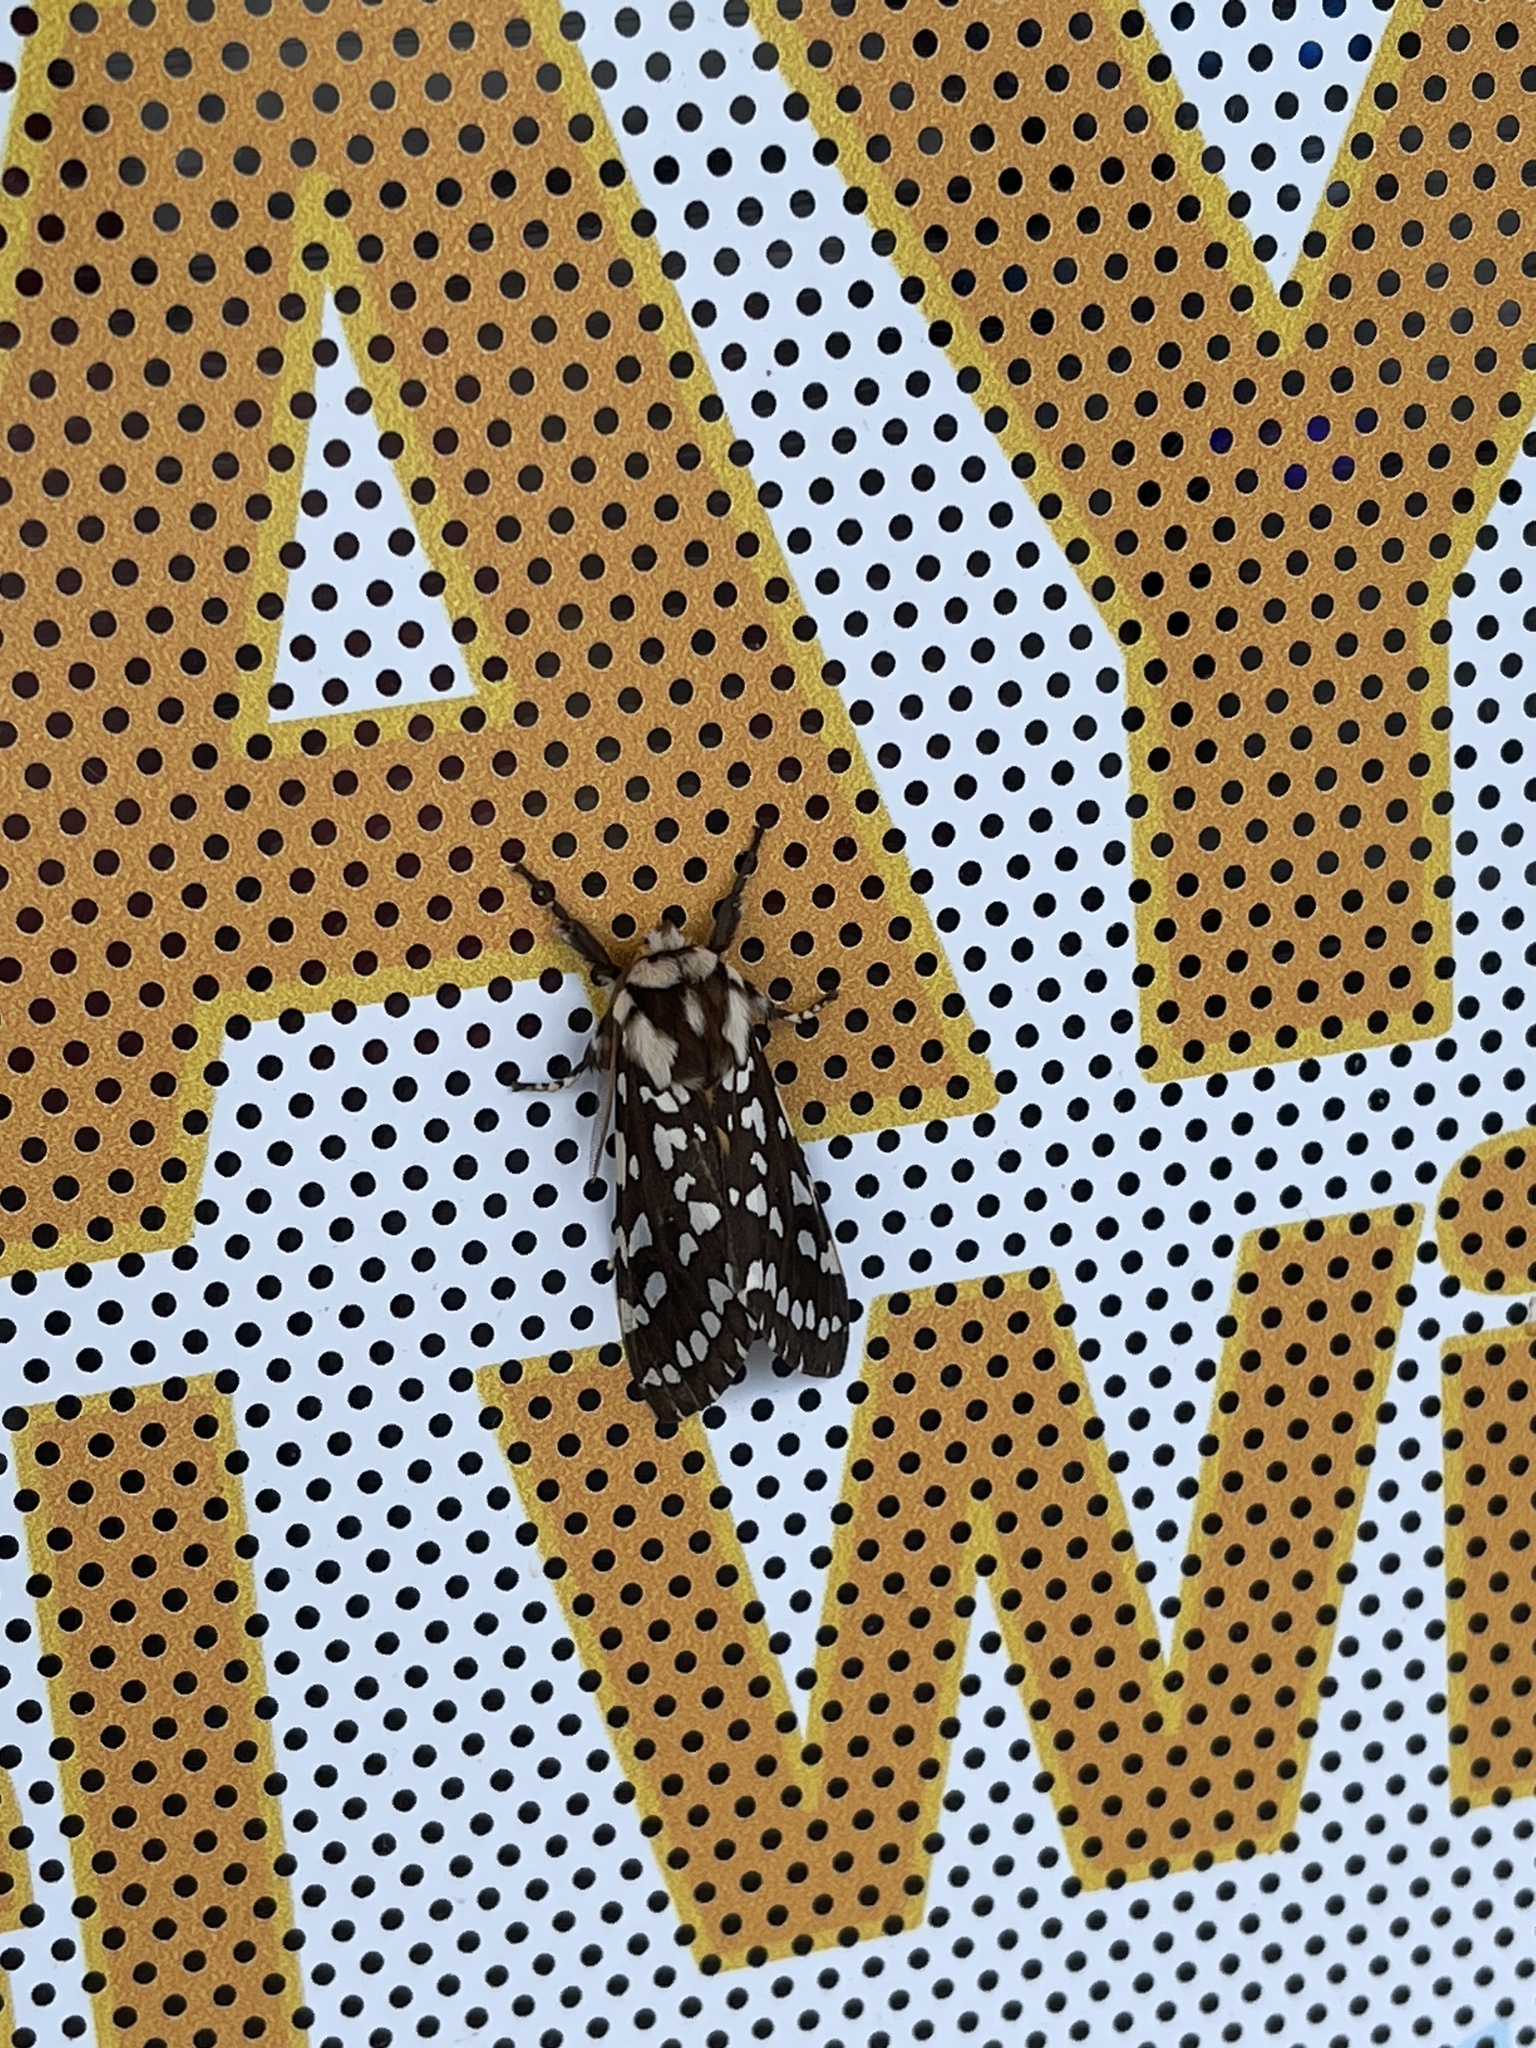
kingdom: Animalia
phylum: Arthropoda
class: Insecta
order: Lepidoptera
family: Erebidae
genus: Lophocampa
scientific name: Lophocampa ingens
